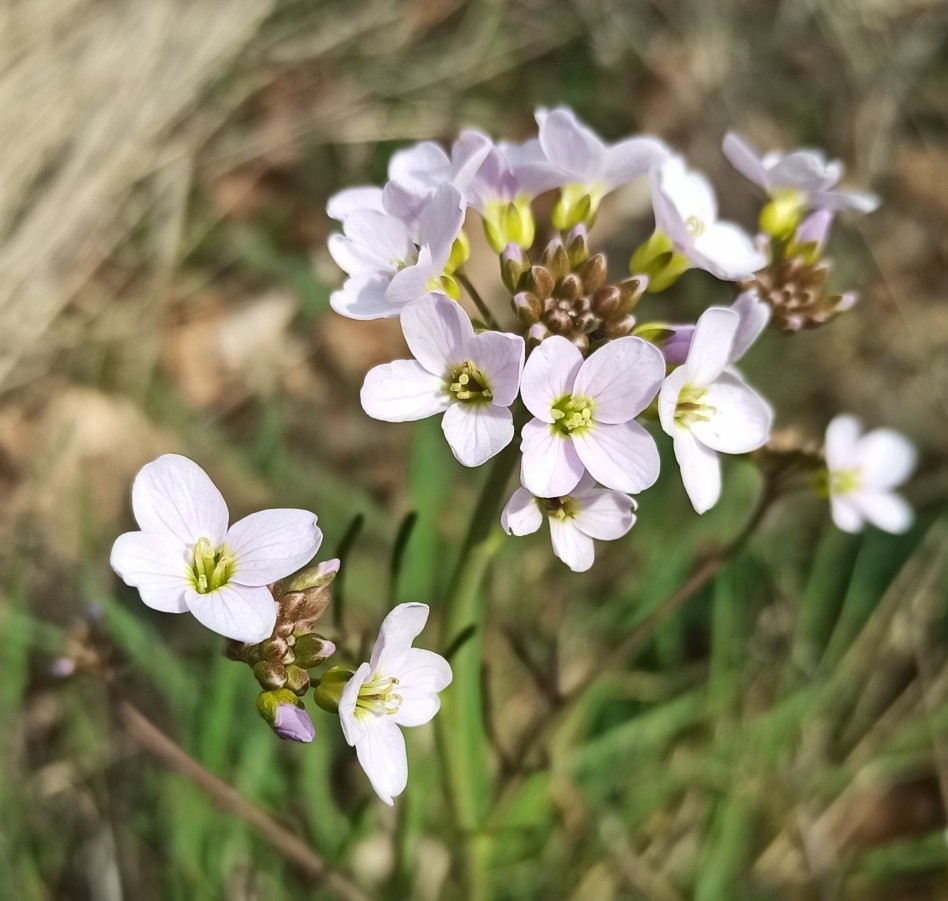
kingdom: Plantae
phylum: Tracheophyta
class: Magnoliopsida
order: Brassicales
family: Brassicaceae
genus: Cardamine
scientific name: Cardamine pratensis
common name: Cuckoo flower
